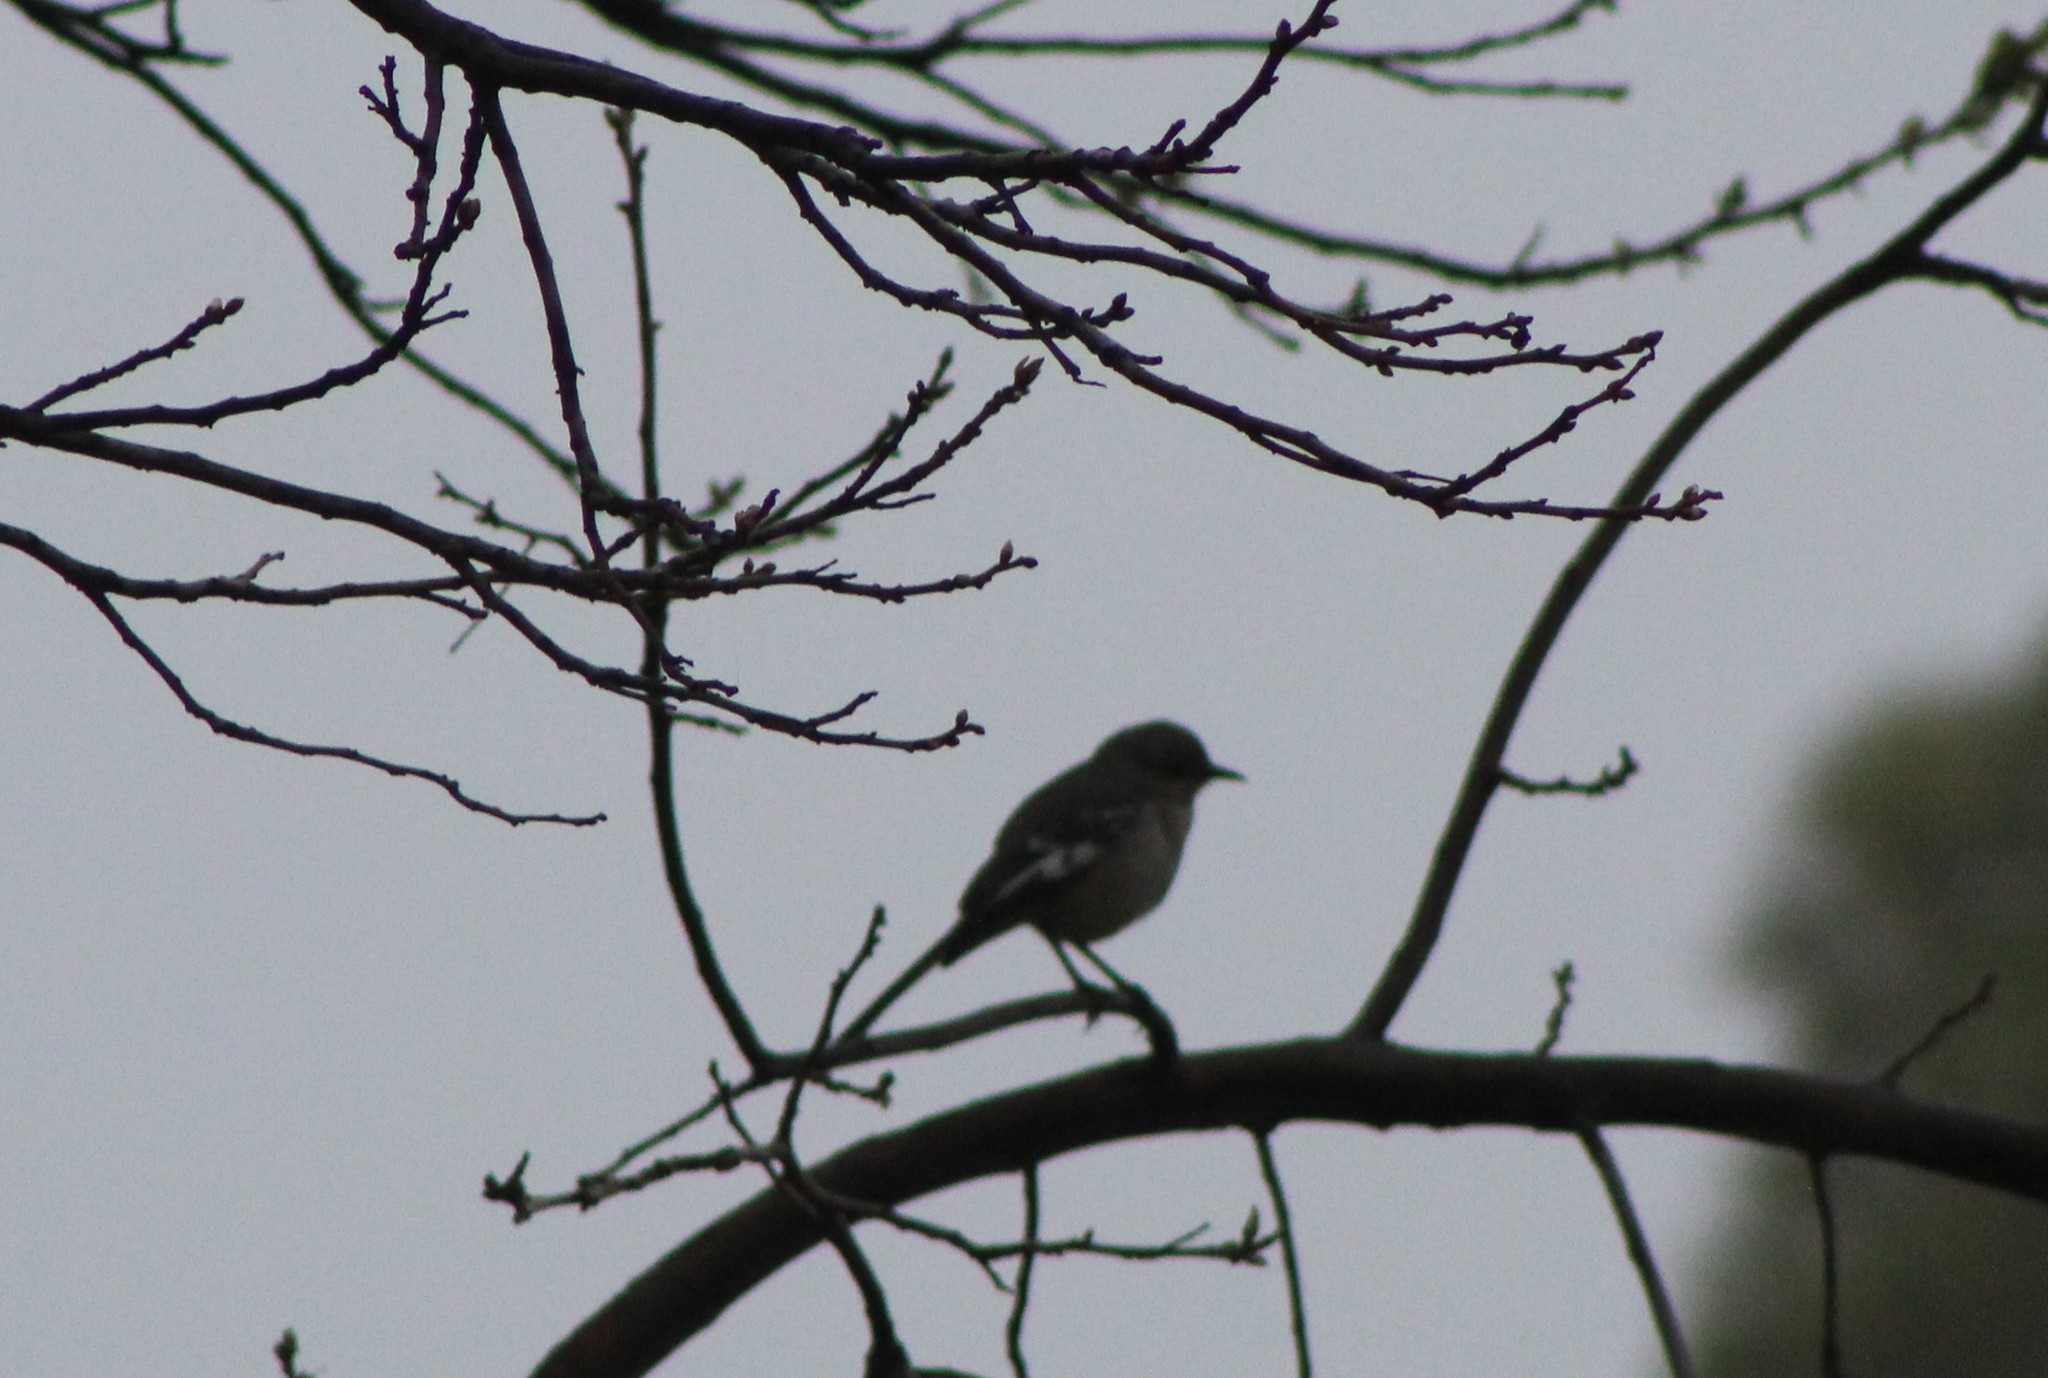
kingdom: Animalia
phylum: Chordata
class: Aves
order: Passeriformes
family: Mimidae
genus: Mimus
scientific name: Mimus polyglottos
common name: Northern mockingbird
